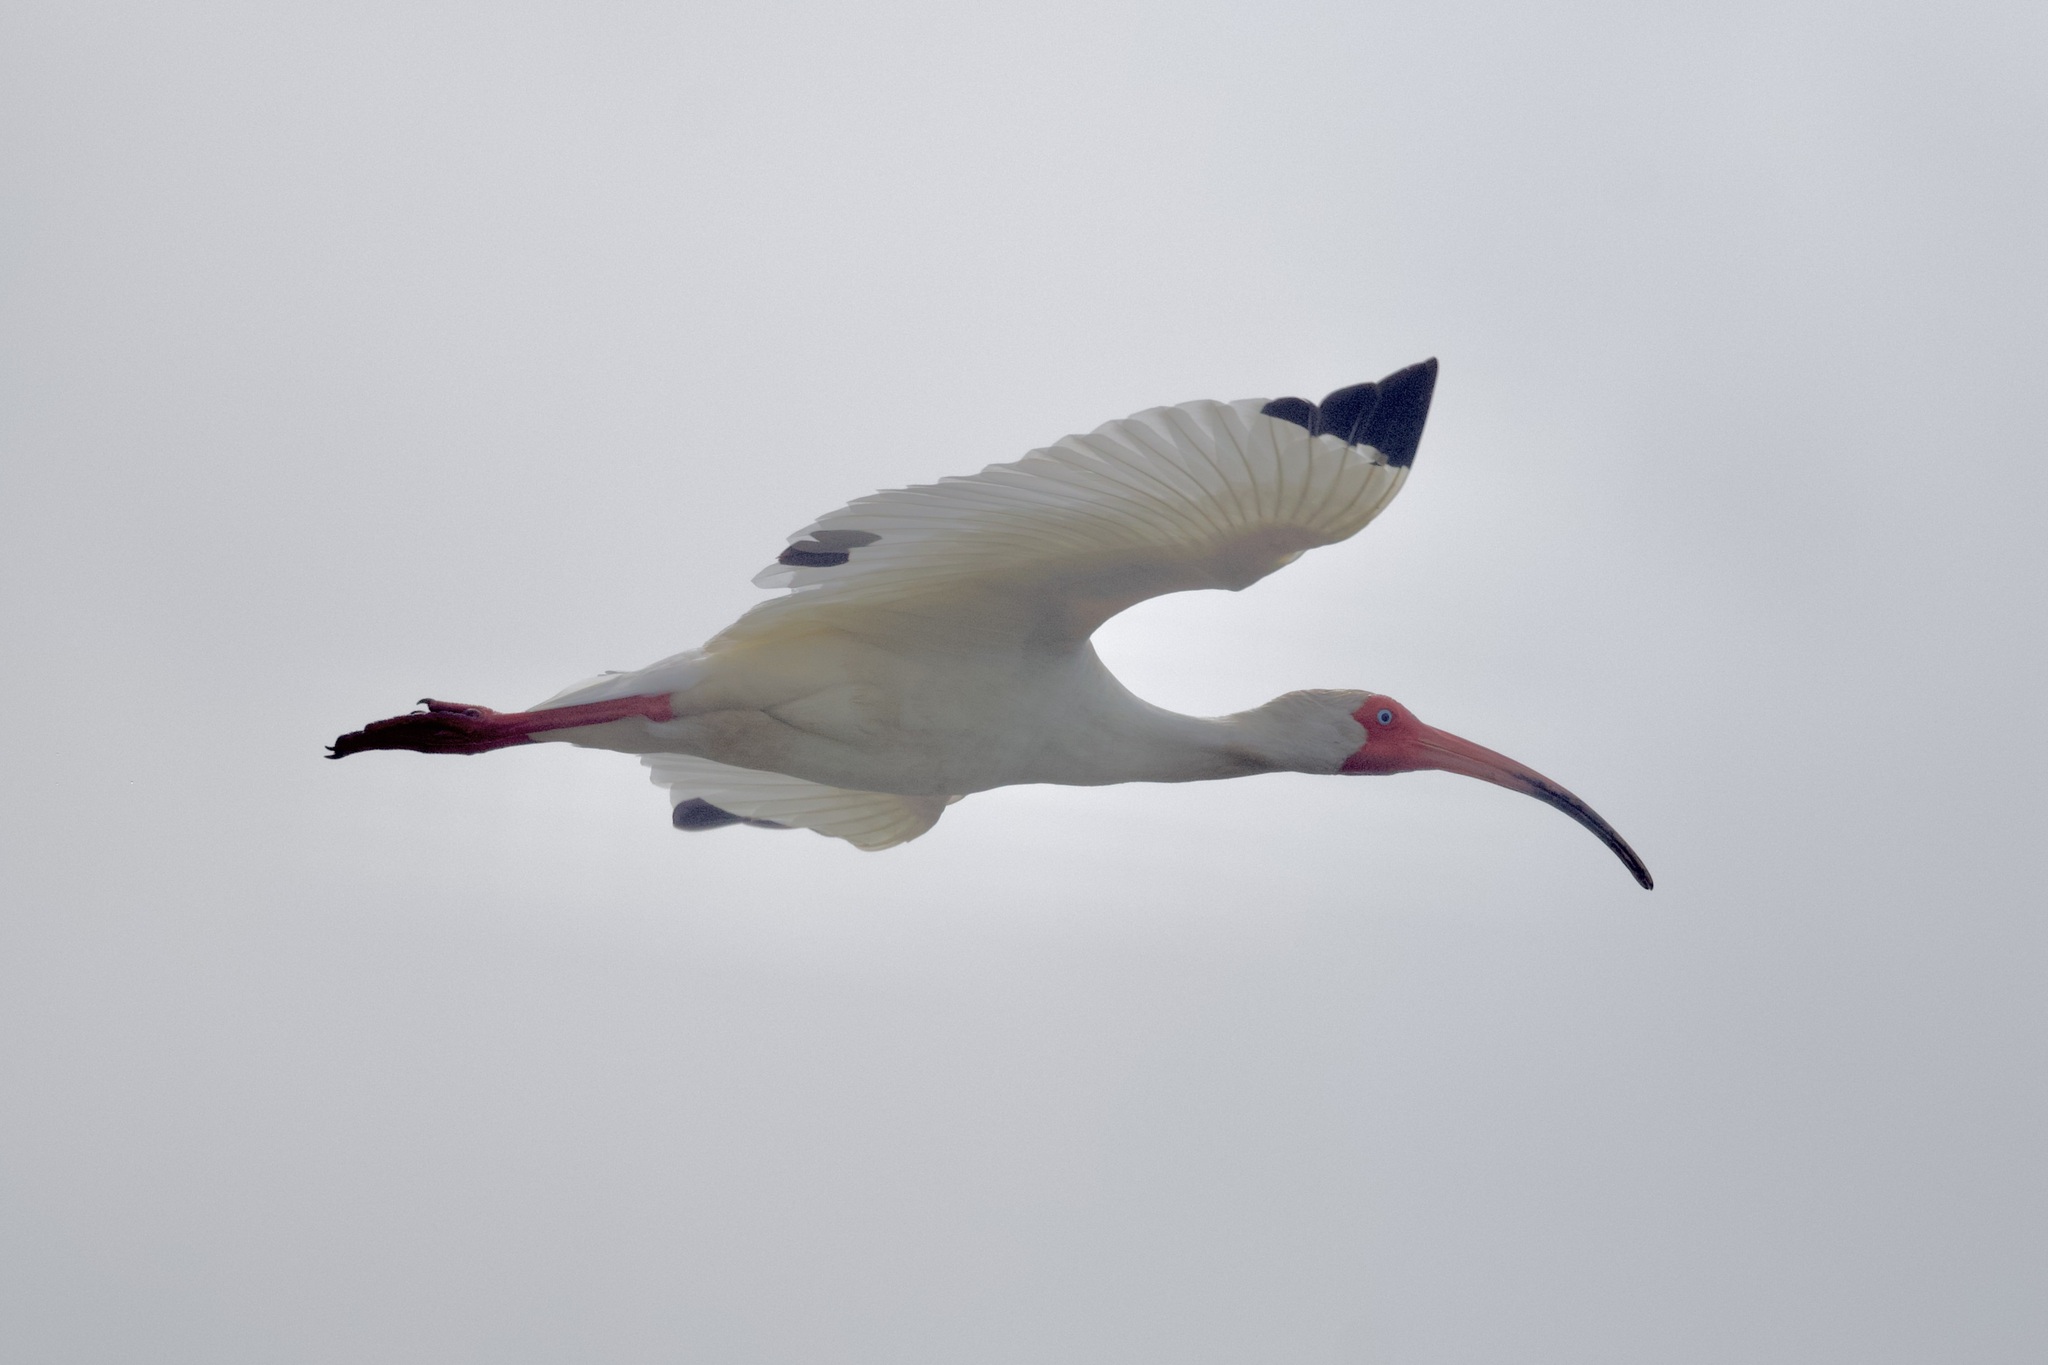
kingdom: Animalia
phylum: Chordata
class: Aves
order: Pelecaniformes
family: Threskiornithidae
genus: Eudocimus
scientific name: Eudocimus albus
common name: White ibis
